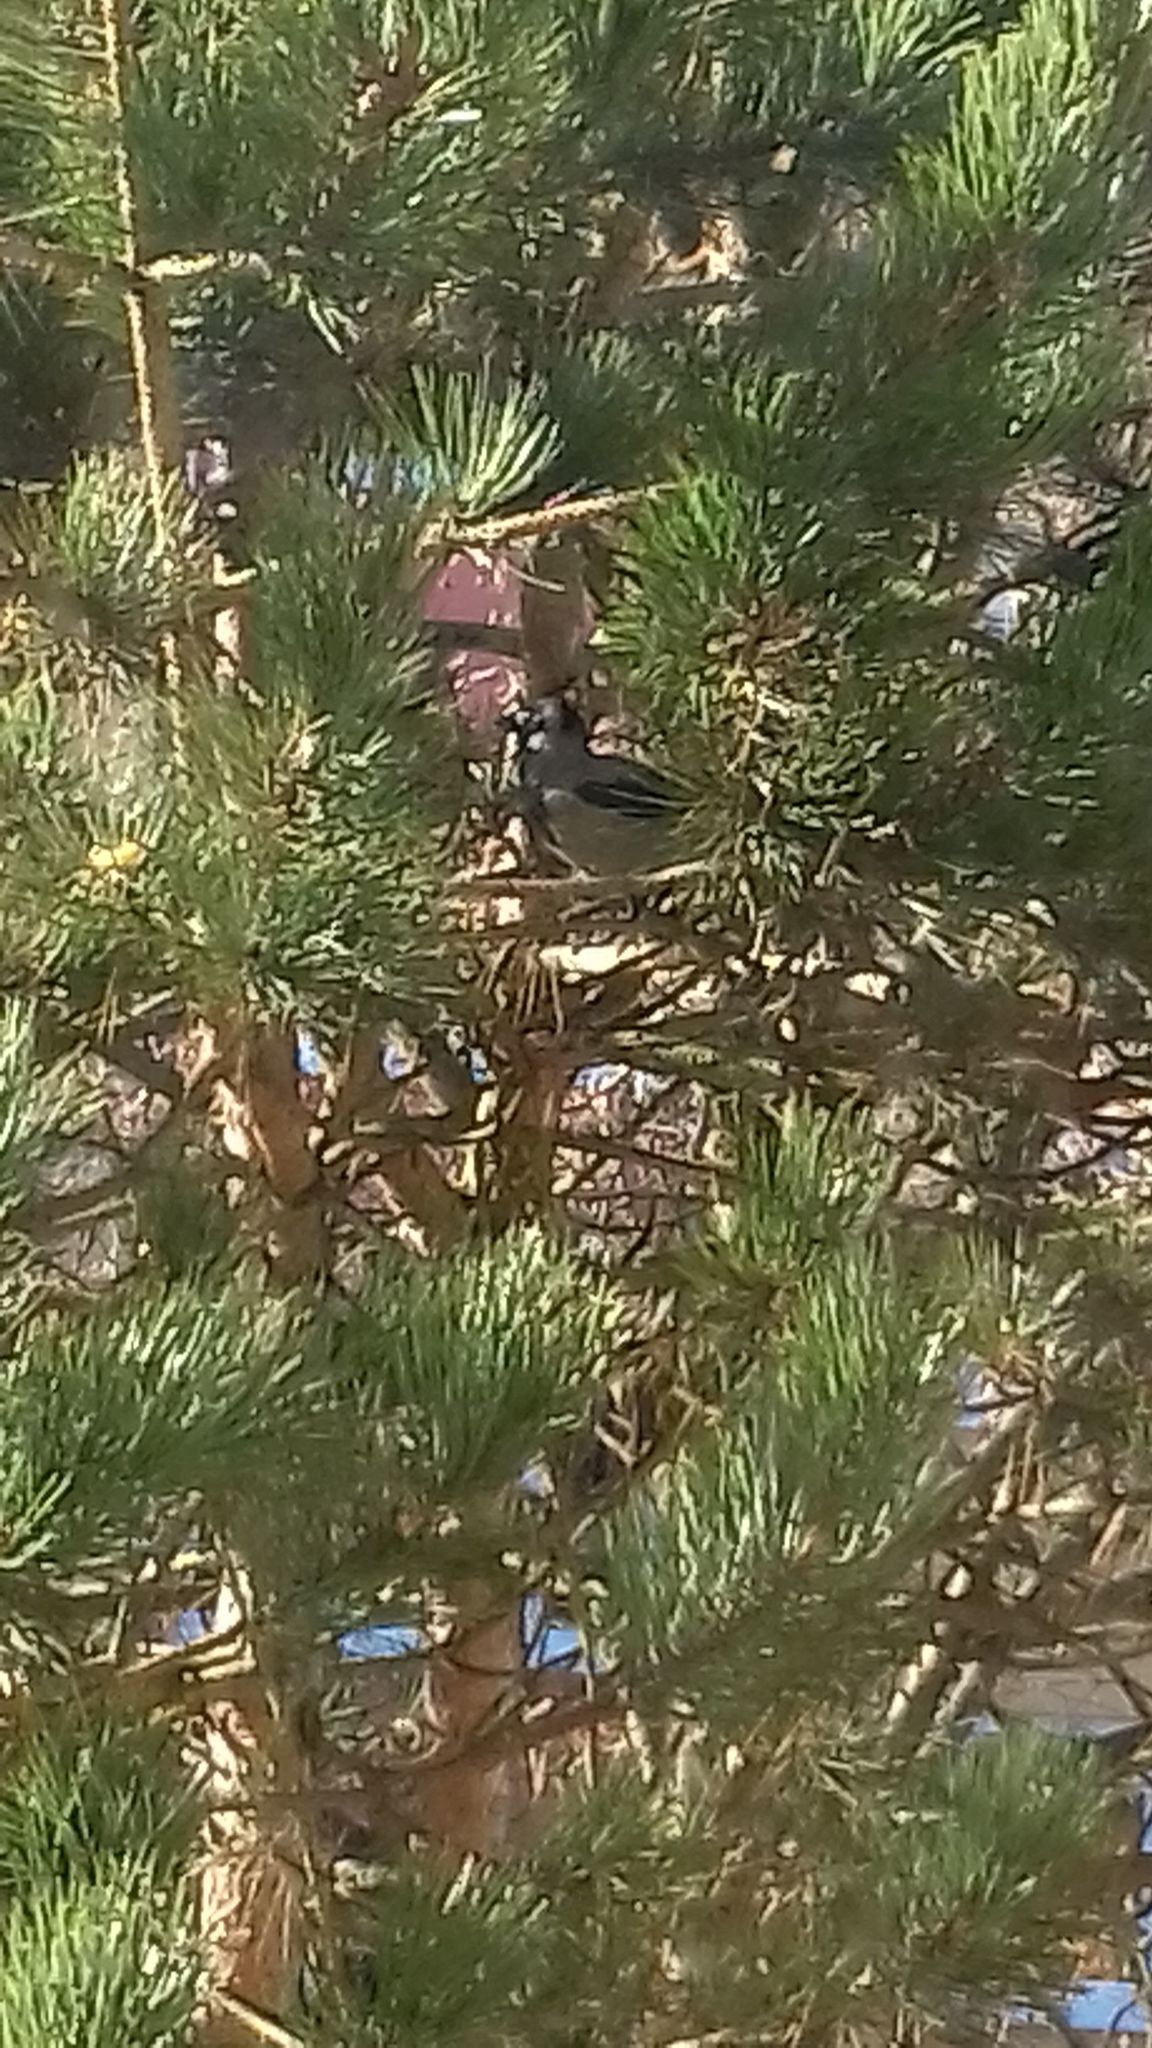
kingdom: Animalia
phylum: Chordata
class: Aves
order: Passeriformes
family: Corvidae
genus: Corvus
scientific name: Corvus cornix
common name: Hooded crow
